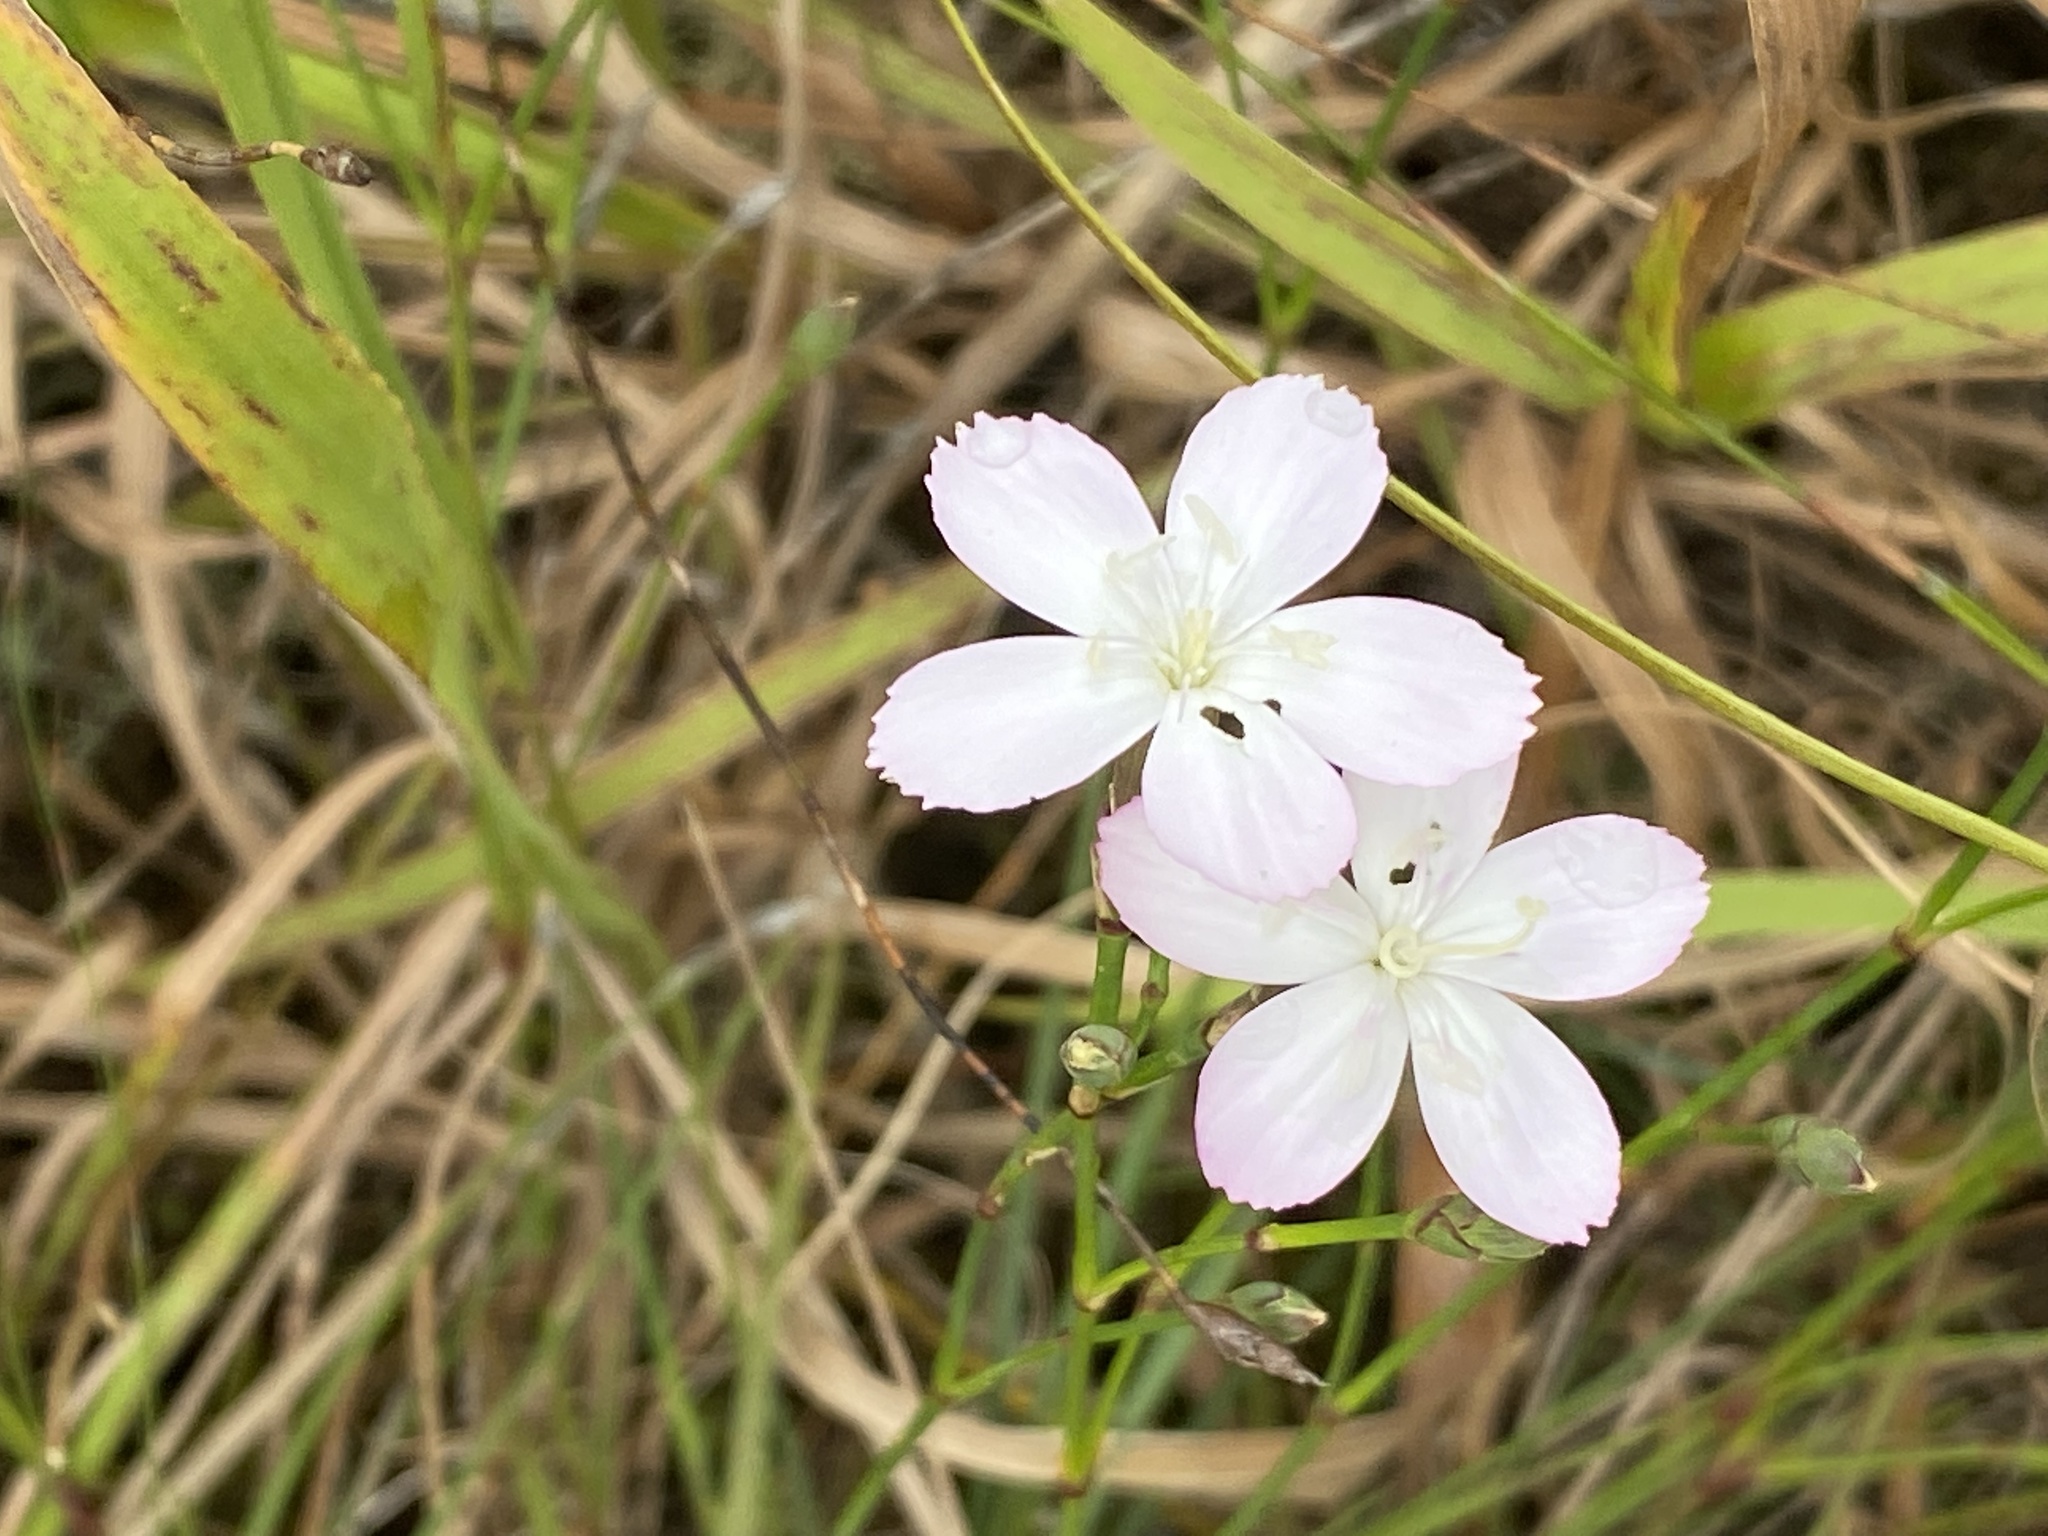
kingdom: Plantae
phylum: Tracheophyta
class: Magnoliopsida
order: Caryophyllales
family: Caryophyllaceae
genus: Dianthus
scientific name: Dianthus albens
